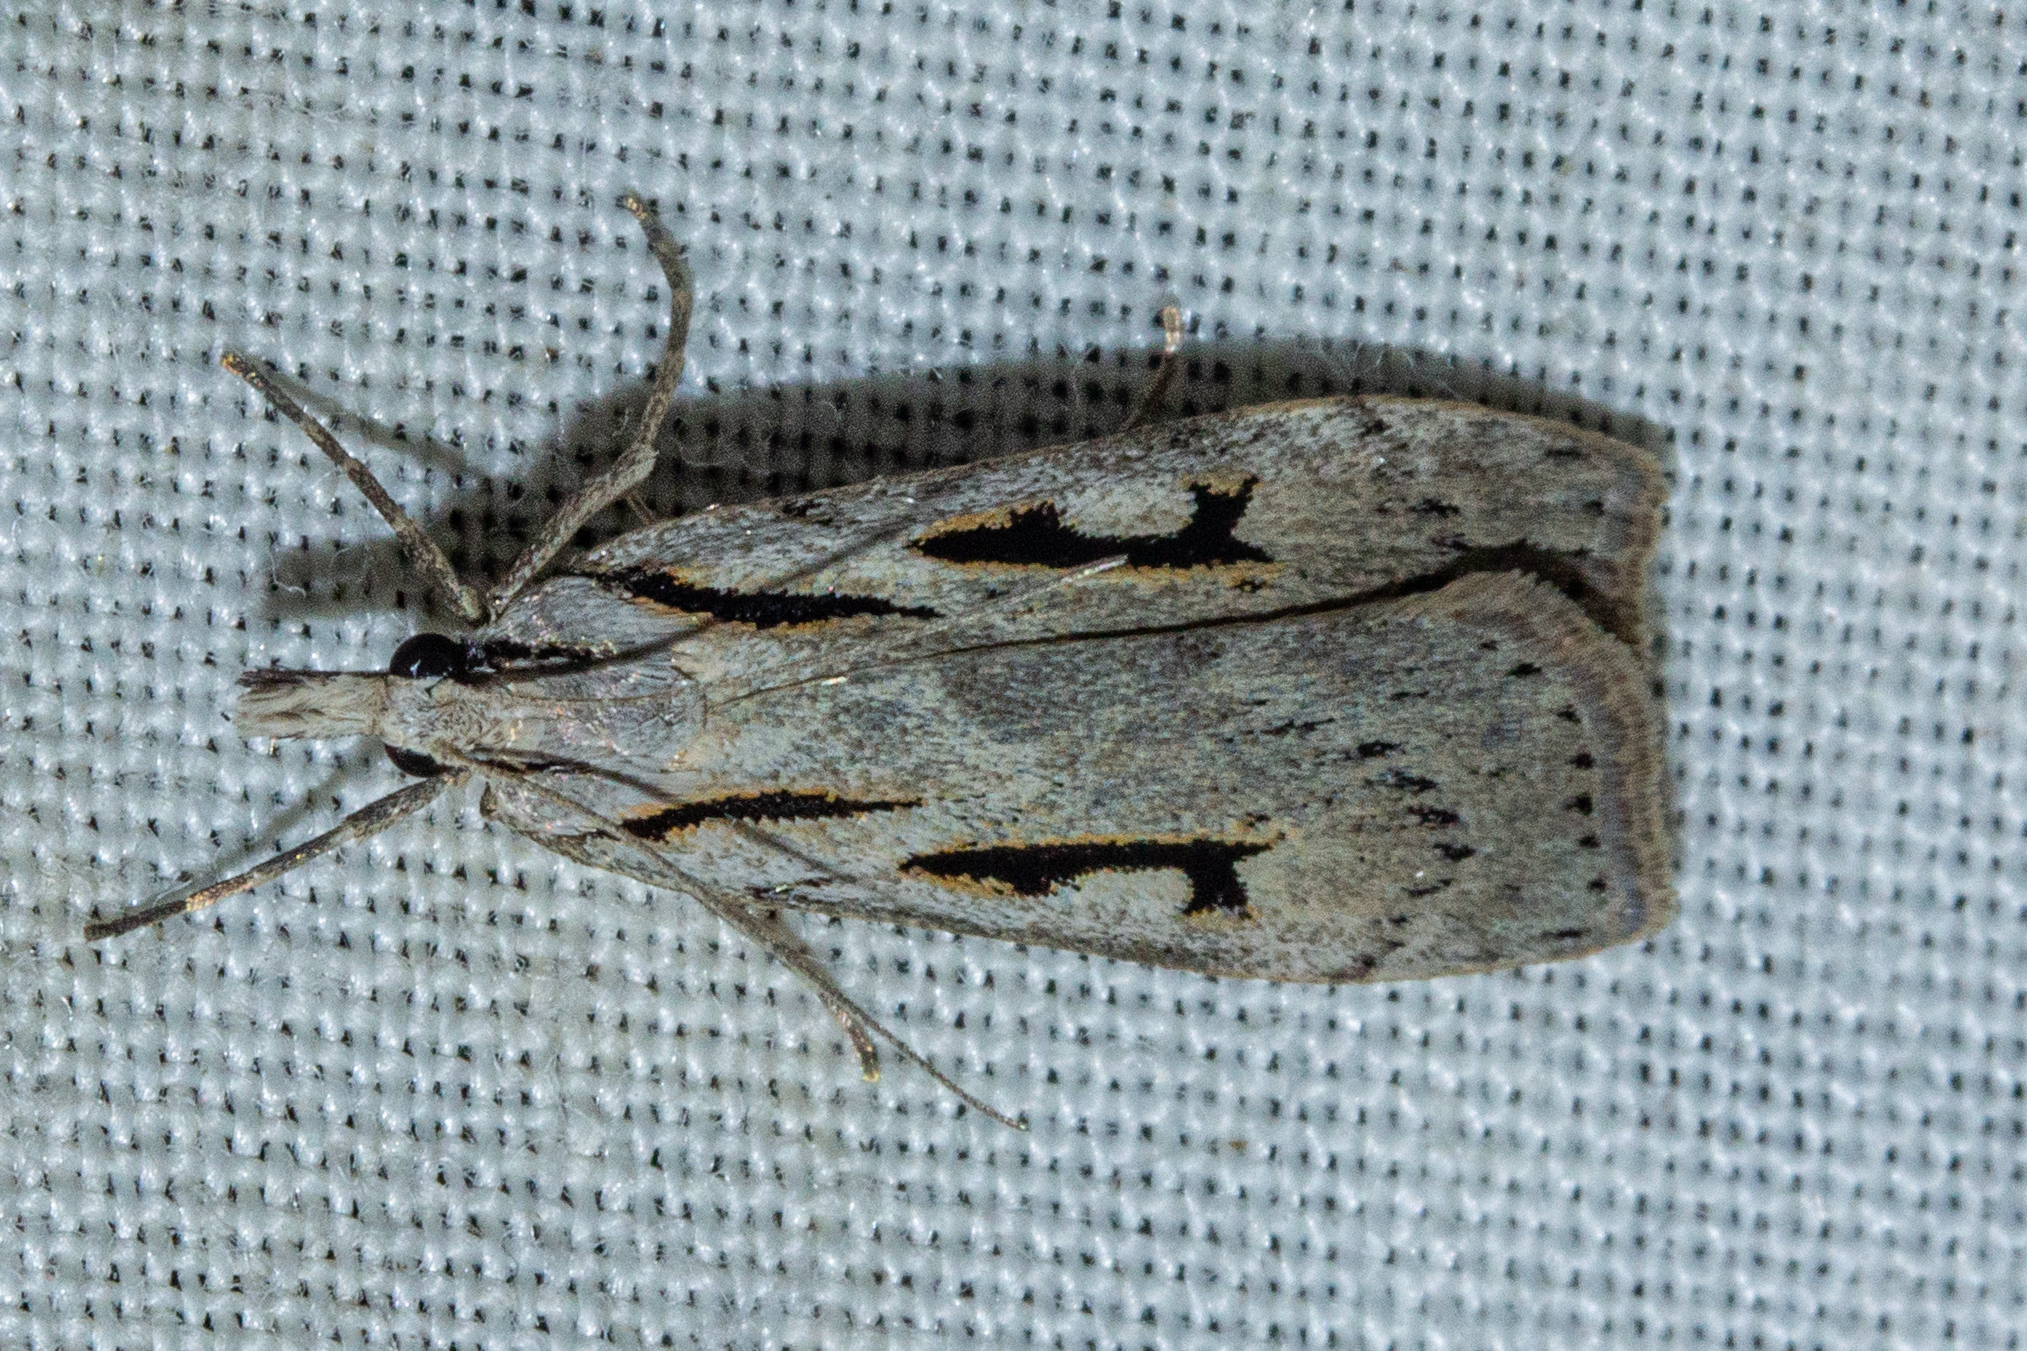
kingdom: Animalia
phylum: Arthropoda
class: Insecta
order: Lepidoptera
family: Crambidae
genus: Scoparia
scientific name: Scoparia rotuellus
